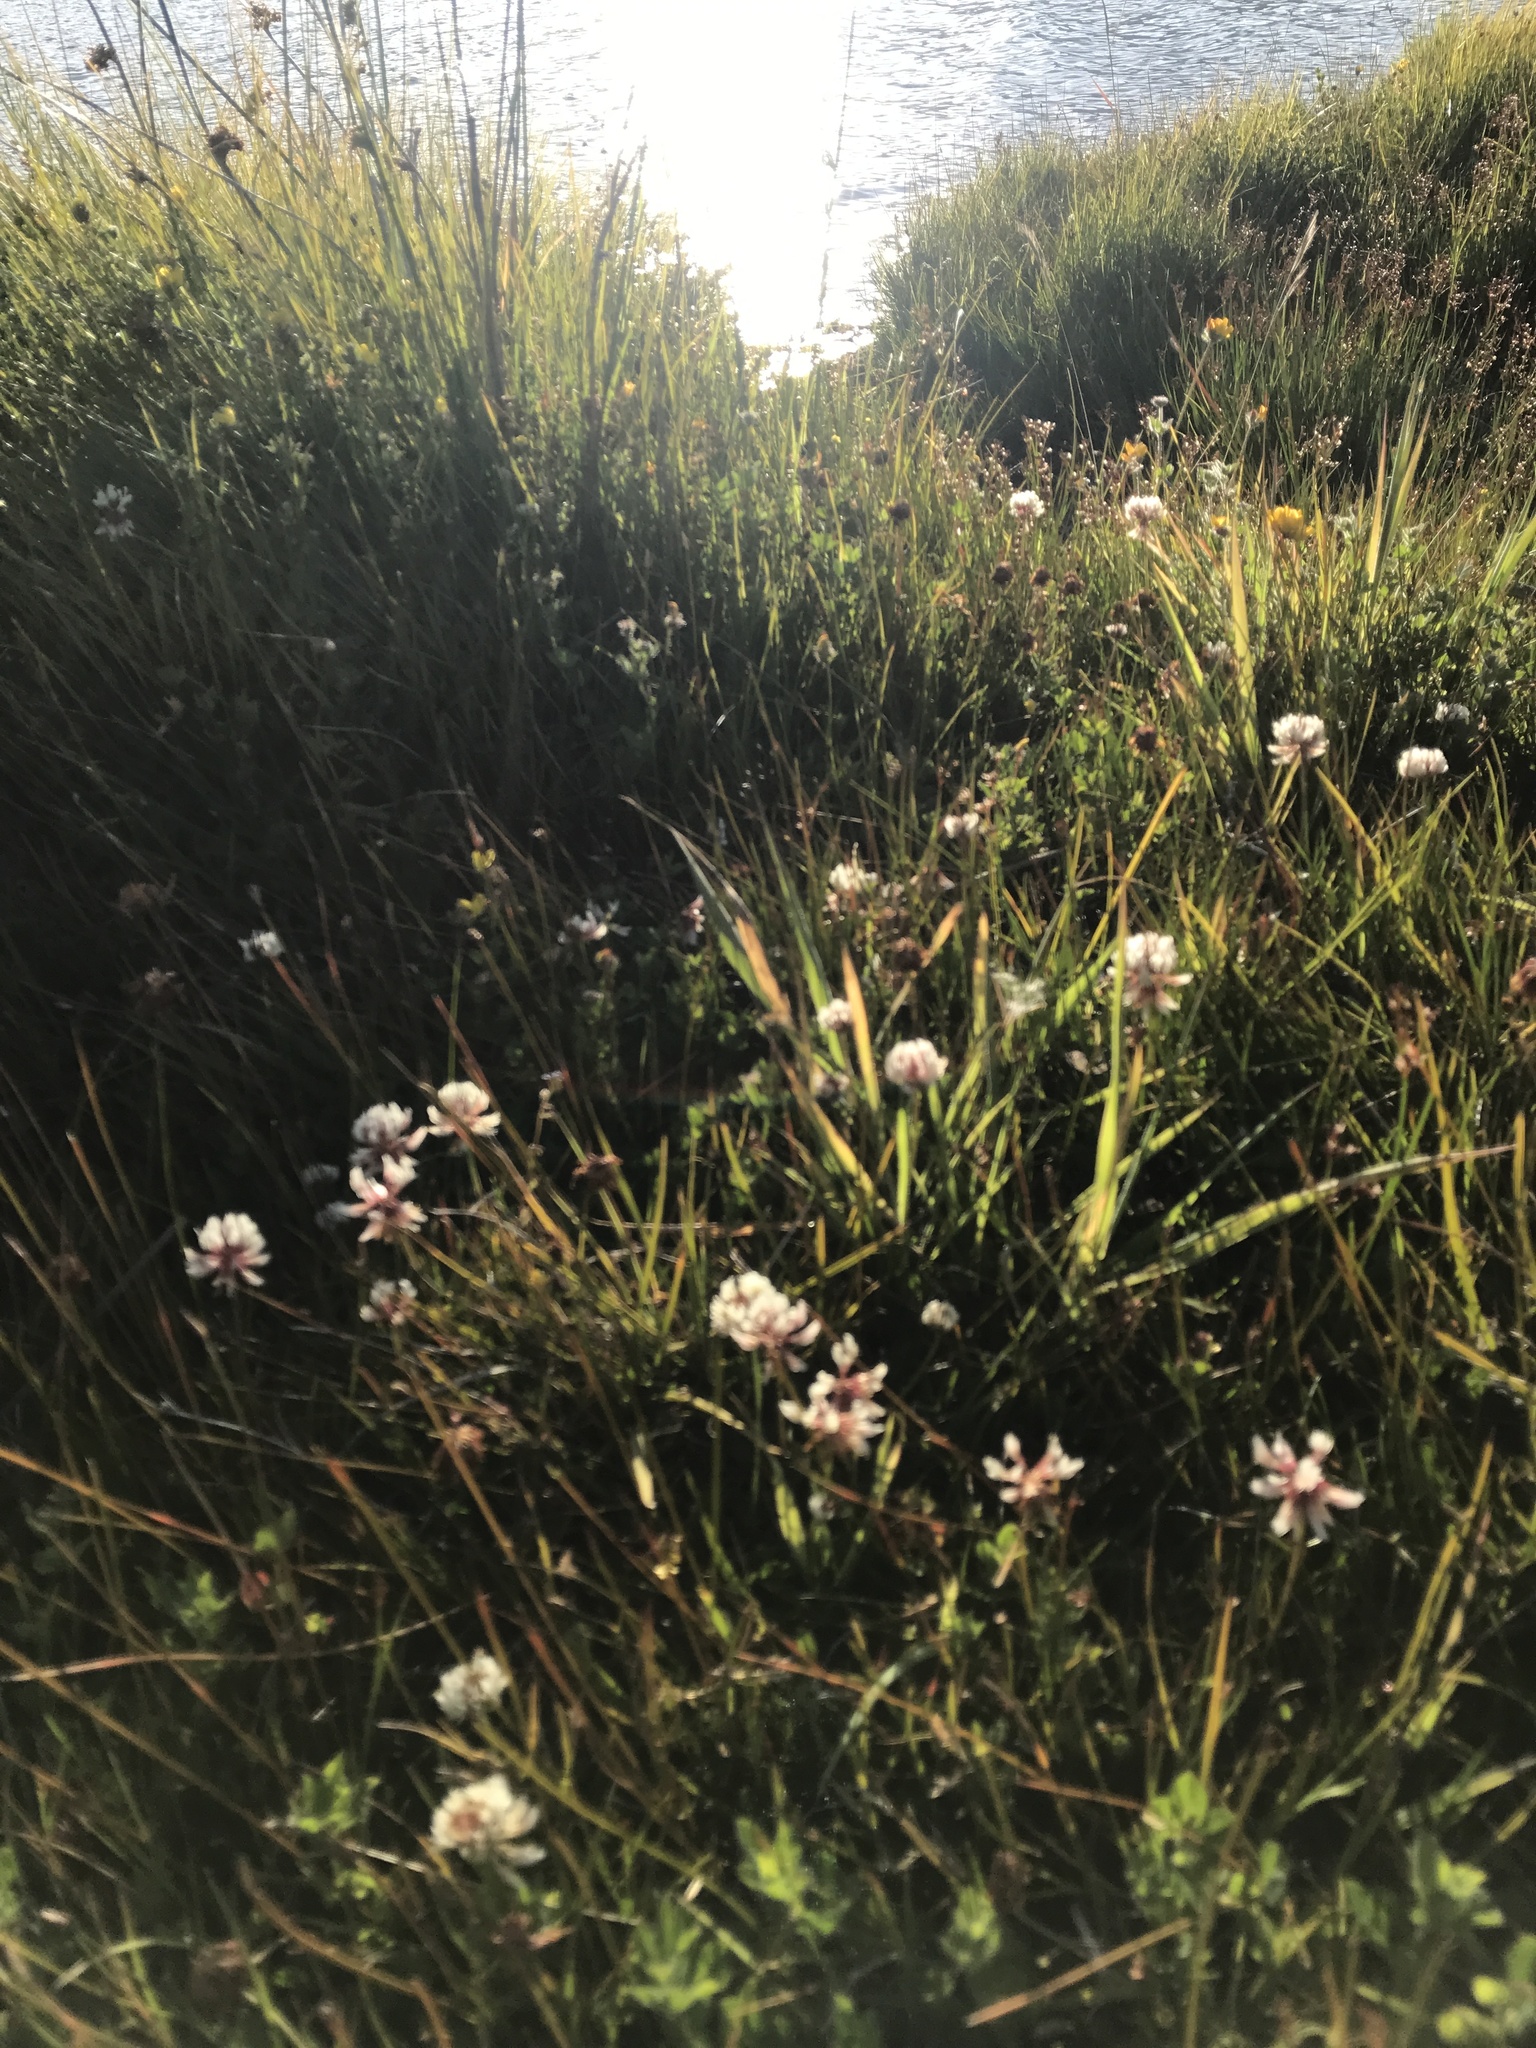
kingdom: Plantae
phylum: Tracheophyta
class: Magnoliopsida
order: Fabales
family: Fabaceae
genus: Trifolium
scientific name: Trifolium repens
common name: White clover
